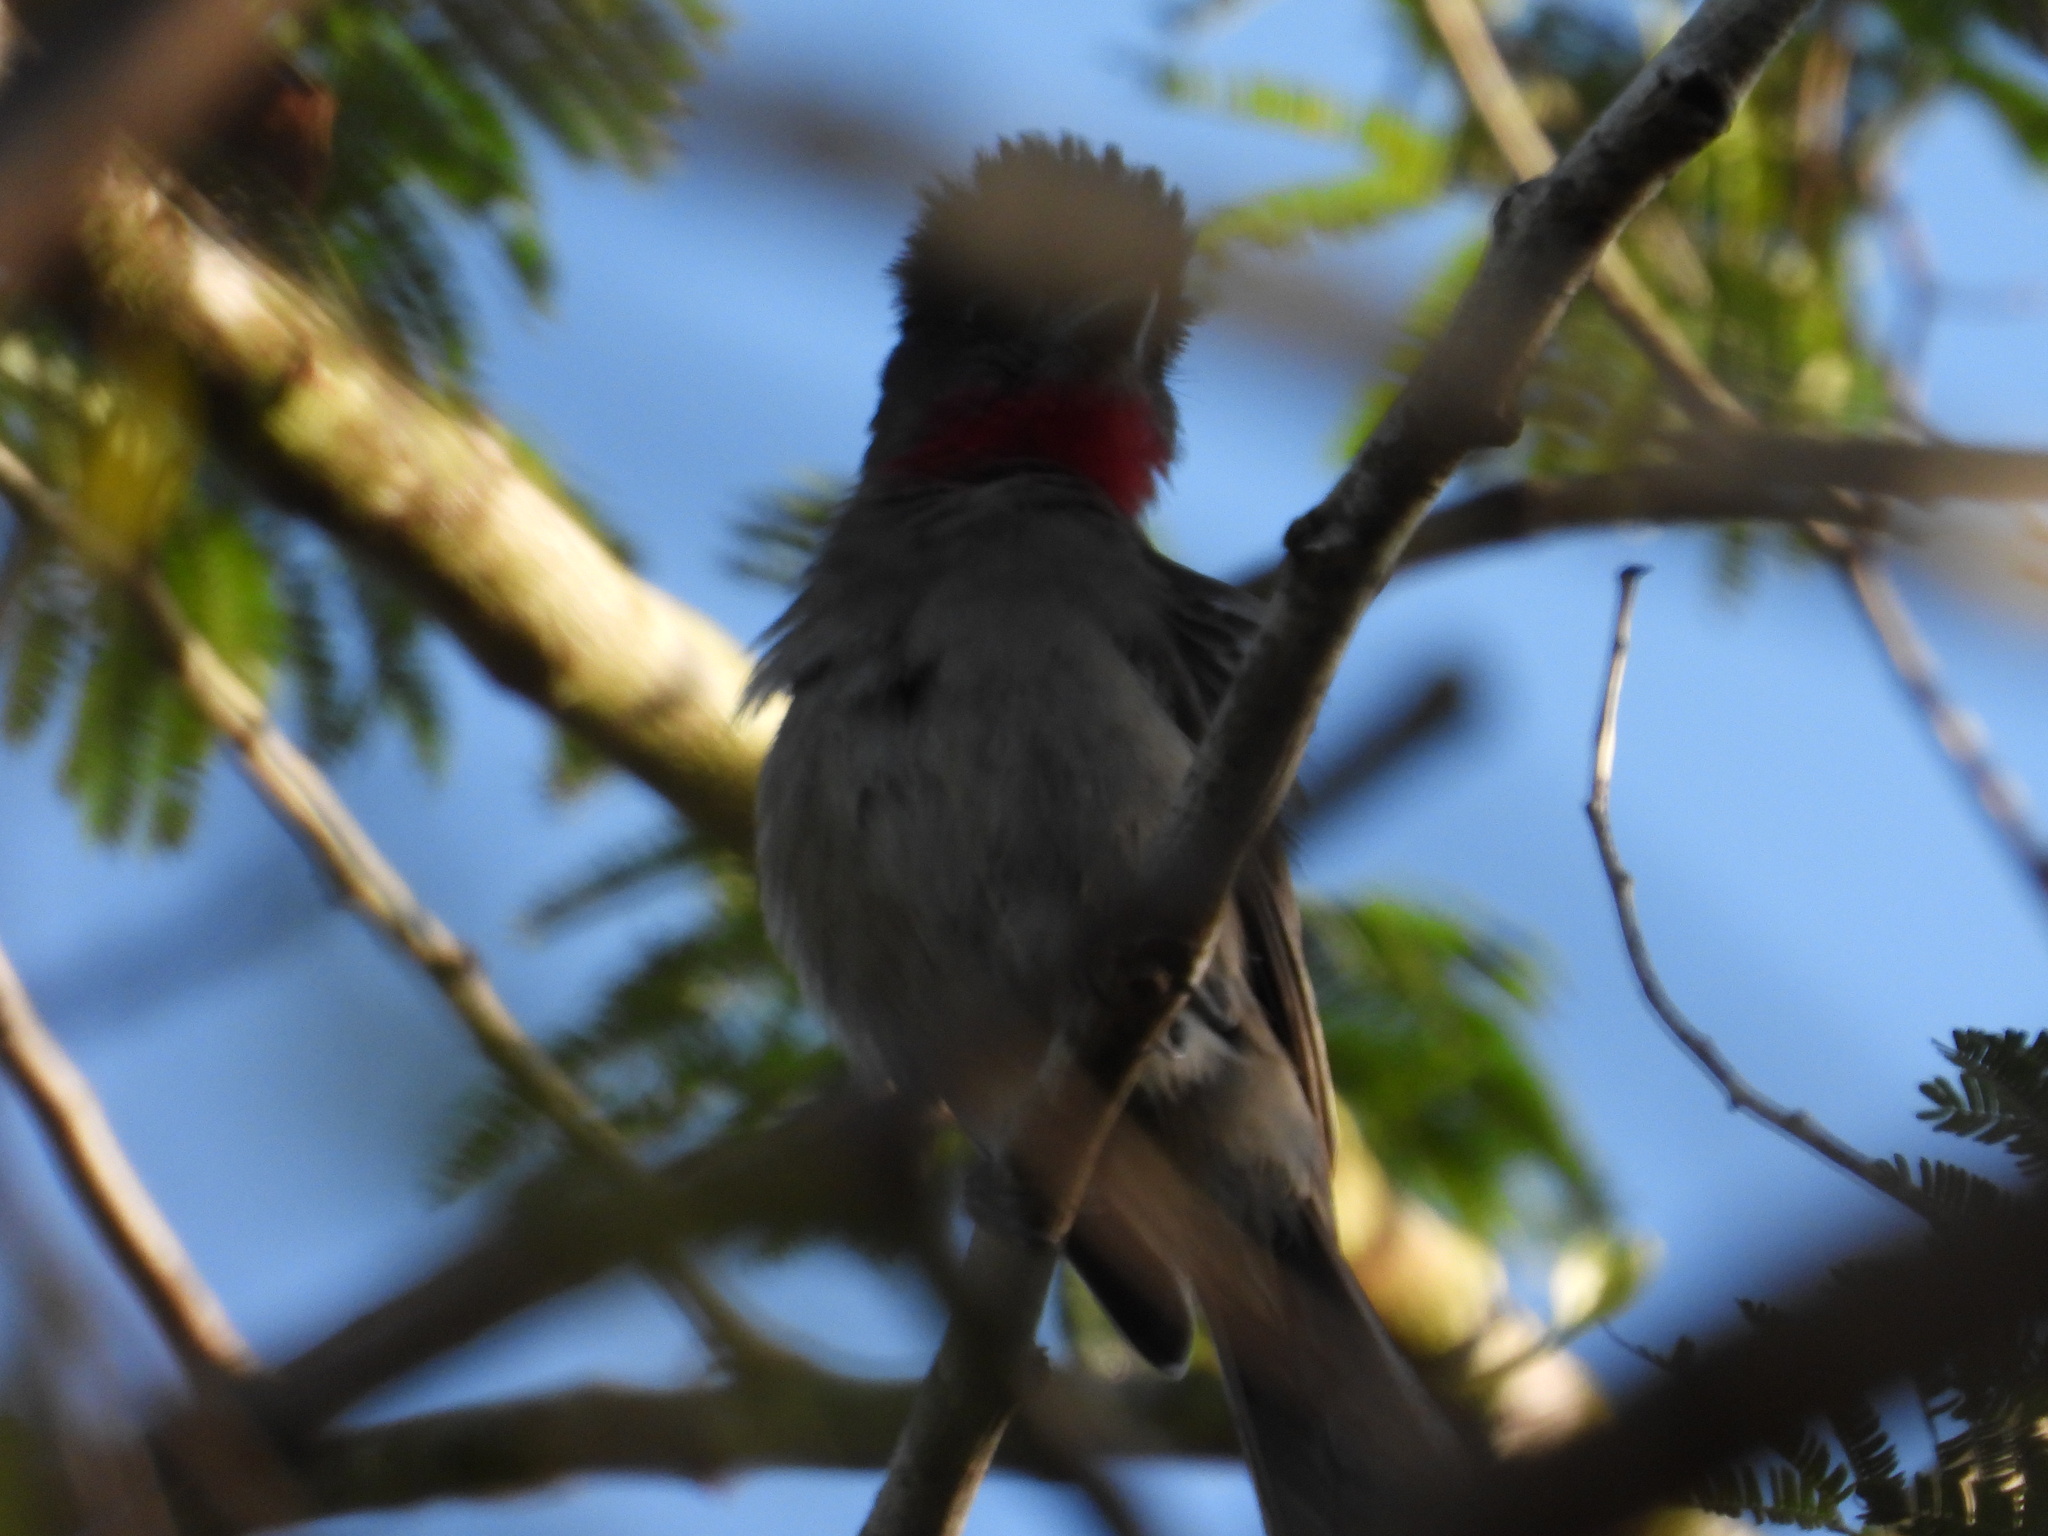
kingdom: Animalia
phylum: Chordata
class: Aves
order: Passeriformes
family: Cotingidae
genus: Pachyramphus
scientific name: Pachyramphus aglaiae
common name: Rose-throated becard
